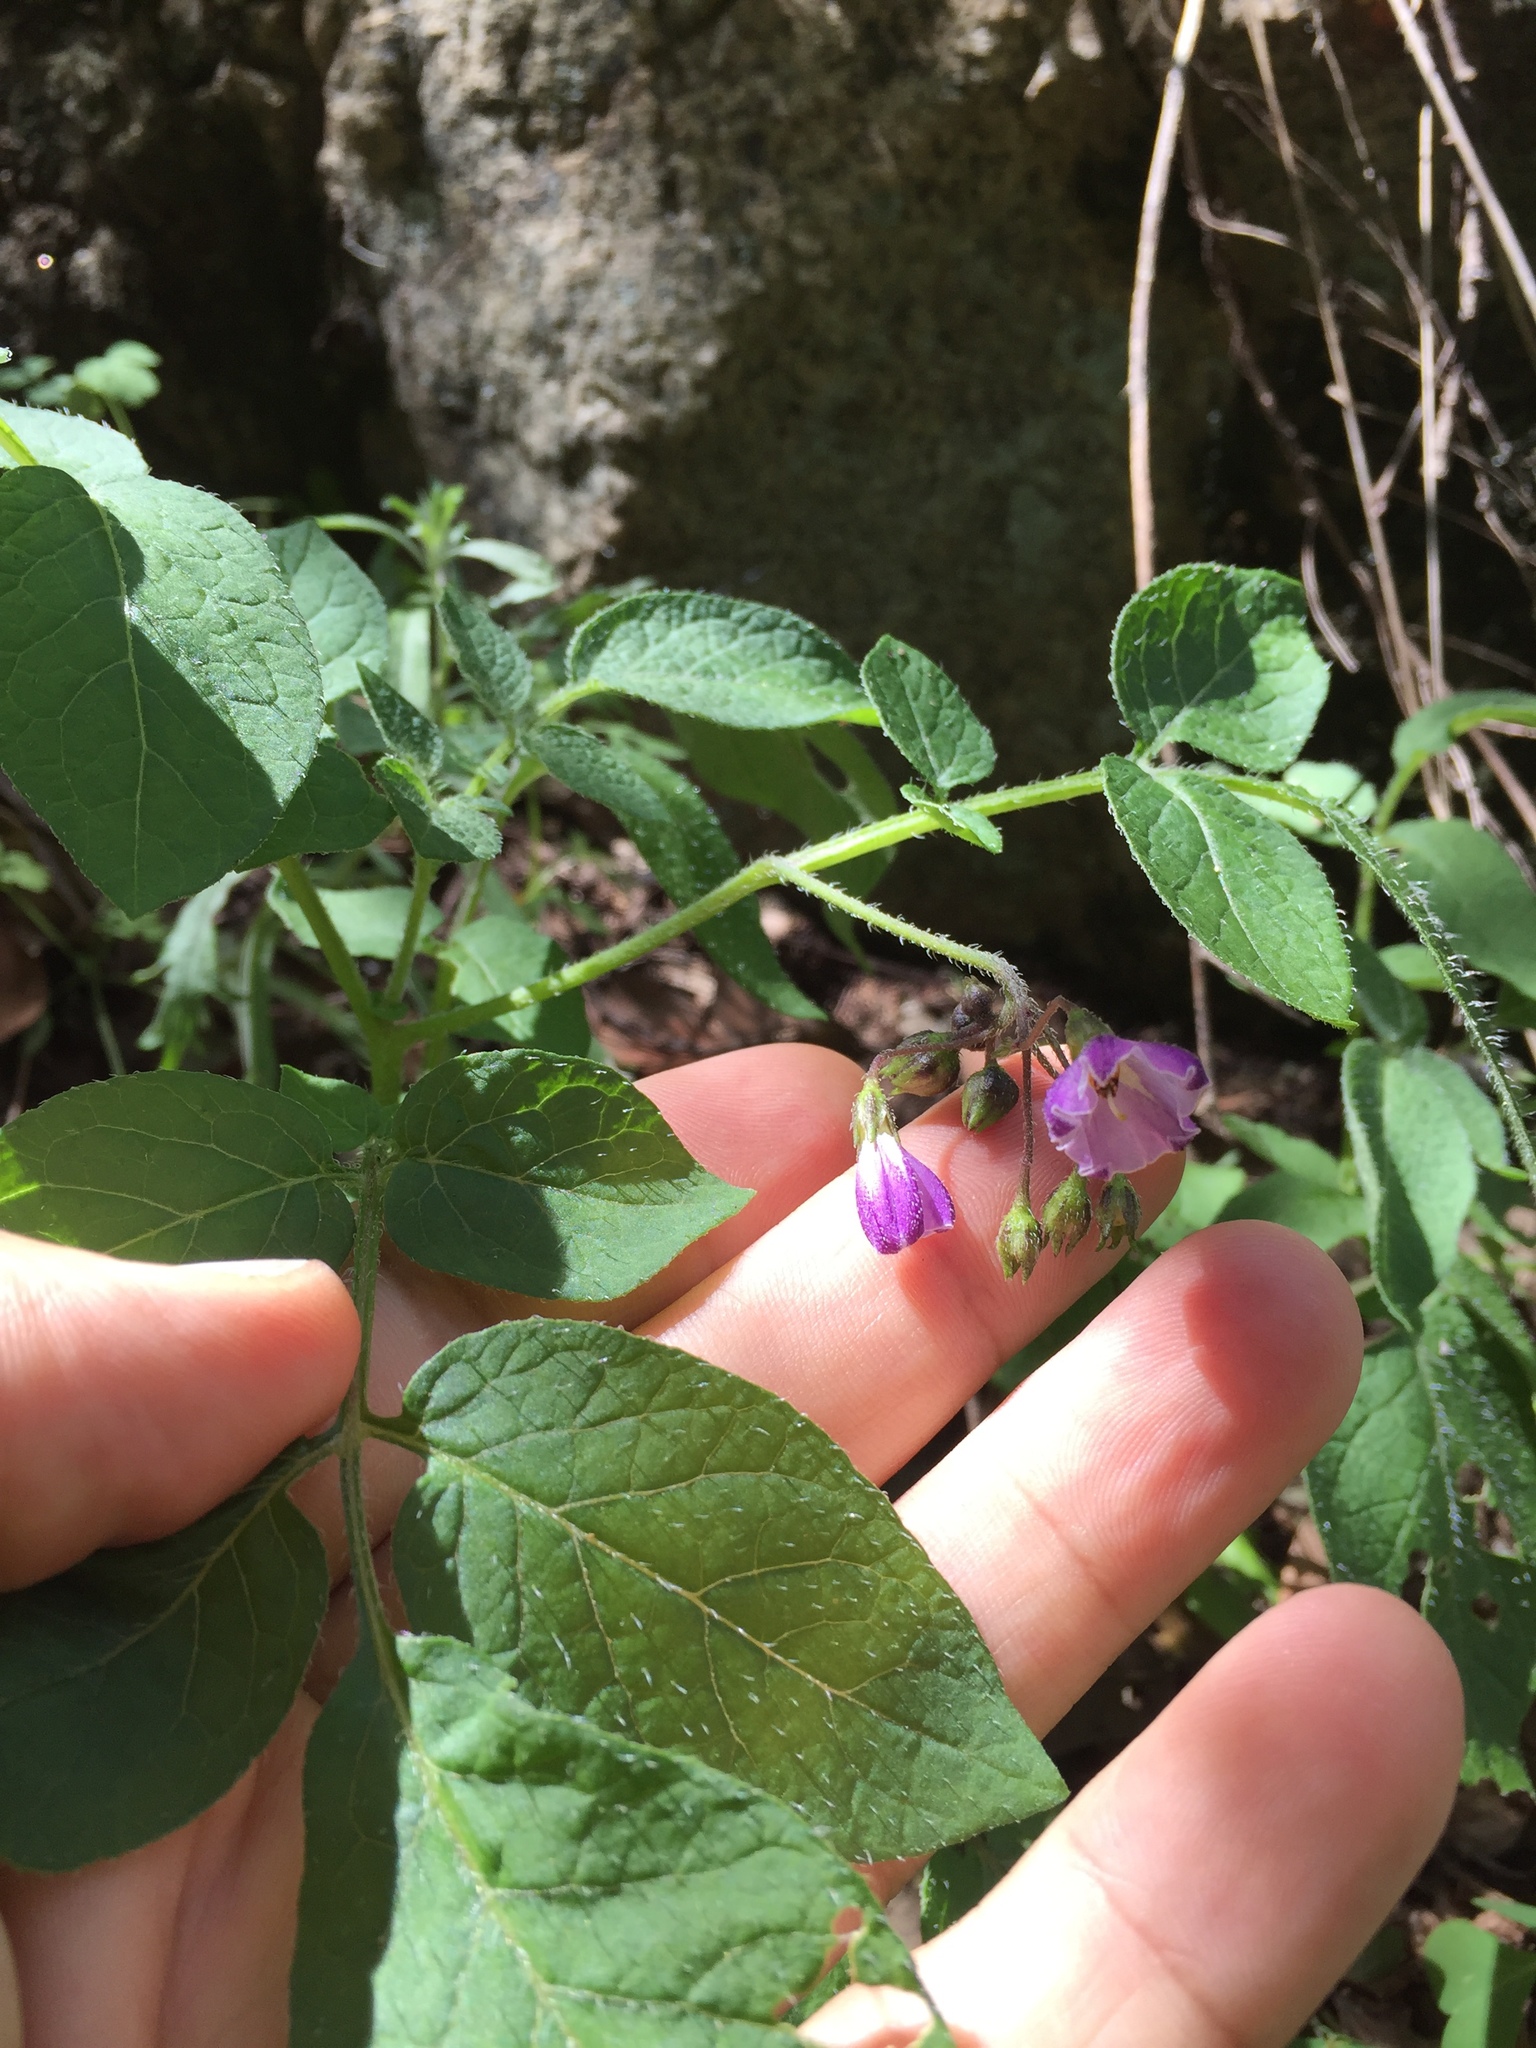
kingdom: Plantae
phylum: Tracheophyta
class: Magnoliopsida
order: Solanales
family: Solanaceae
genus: Solanum
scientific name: Solanum stoloniferum
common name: Fendler's nighshade
